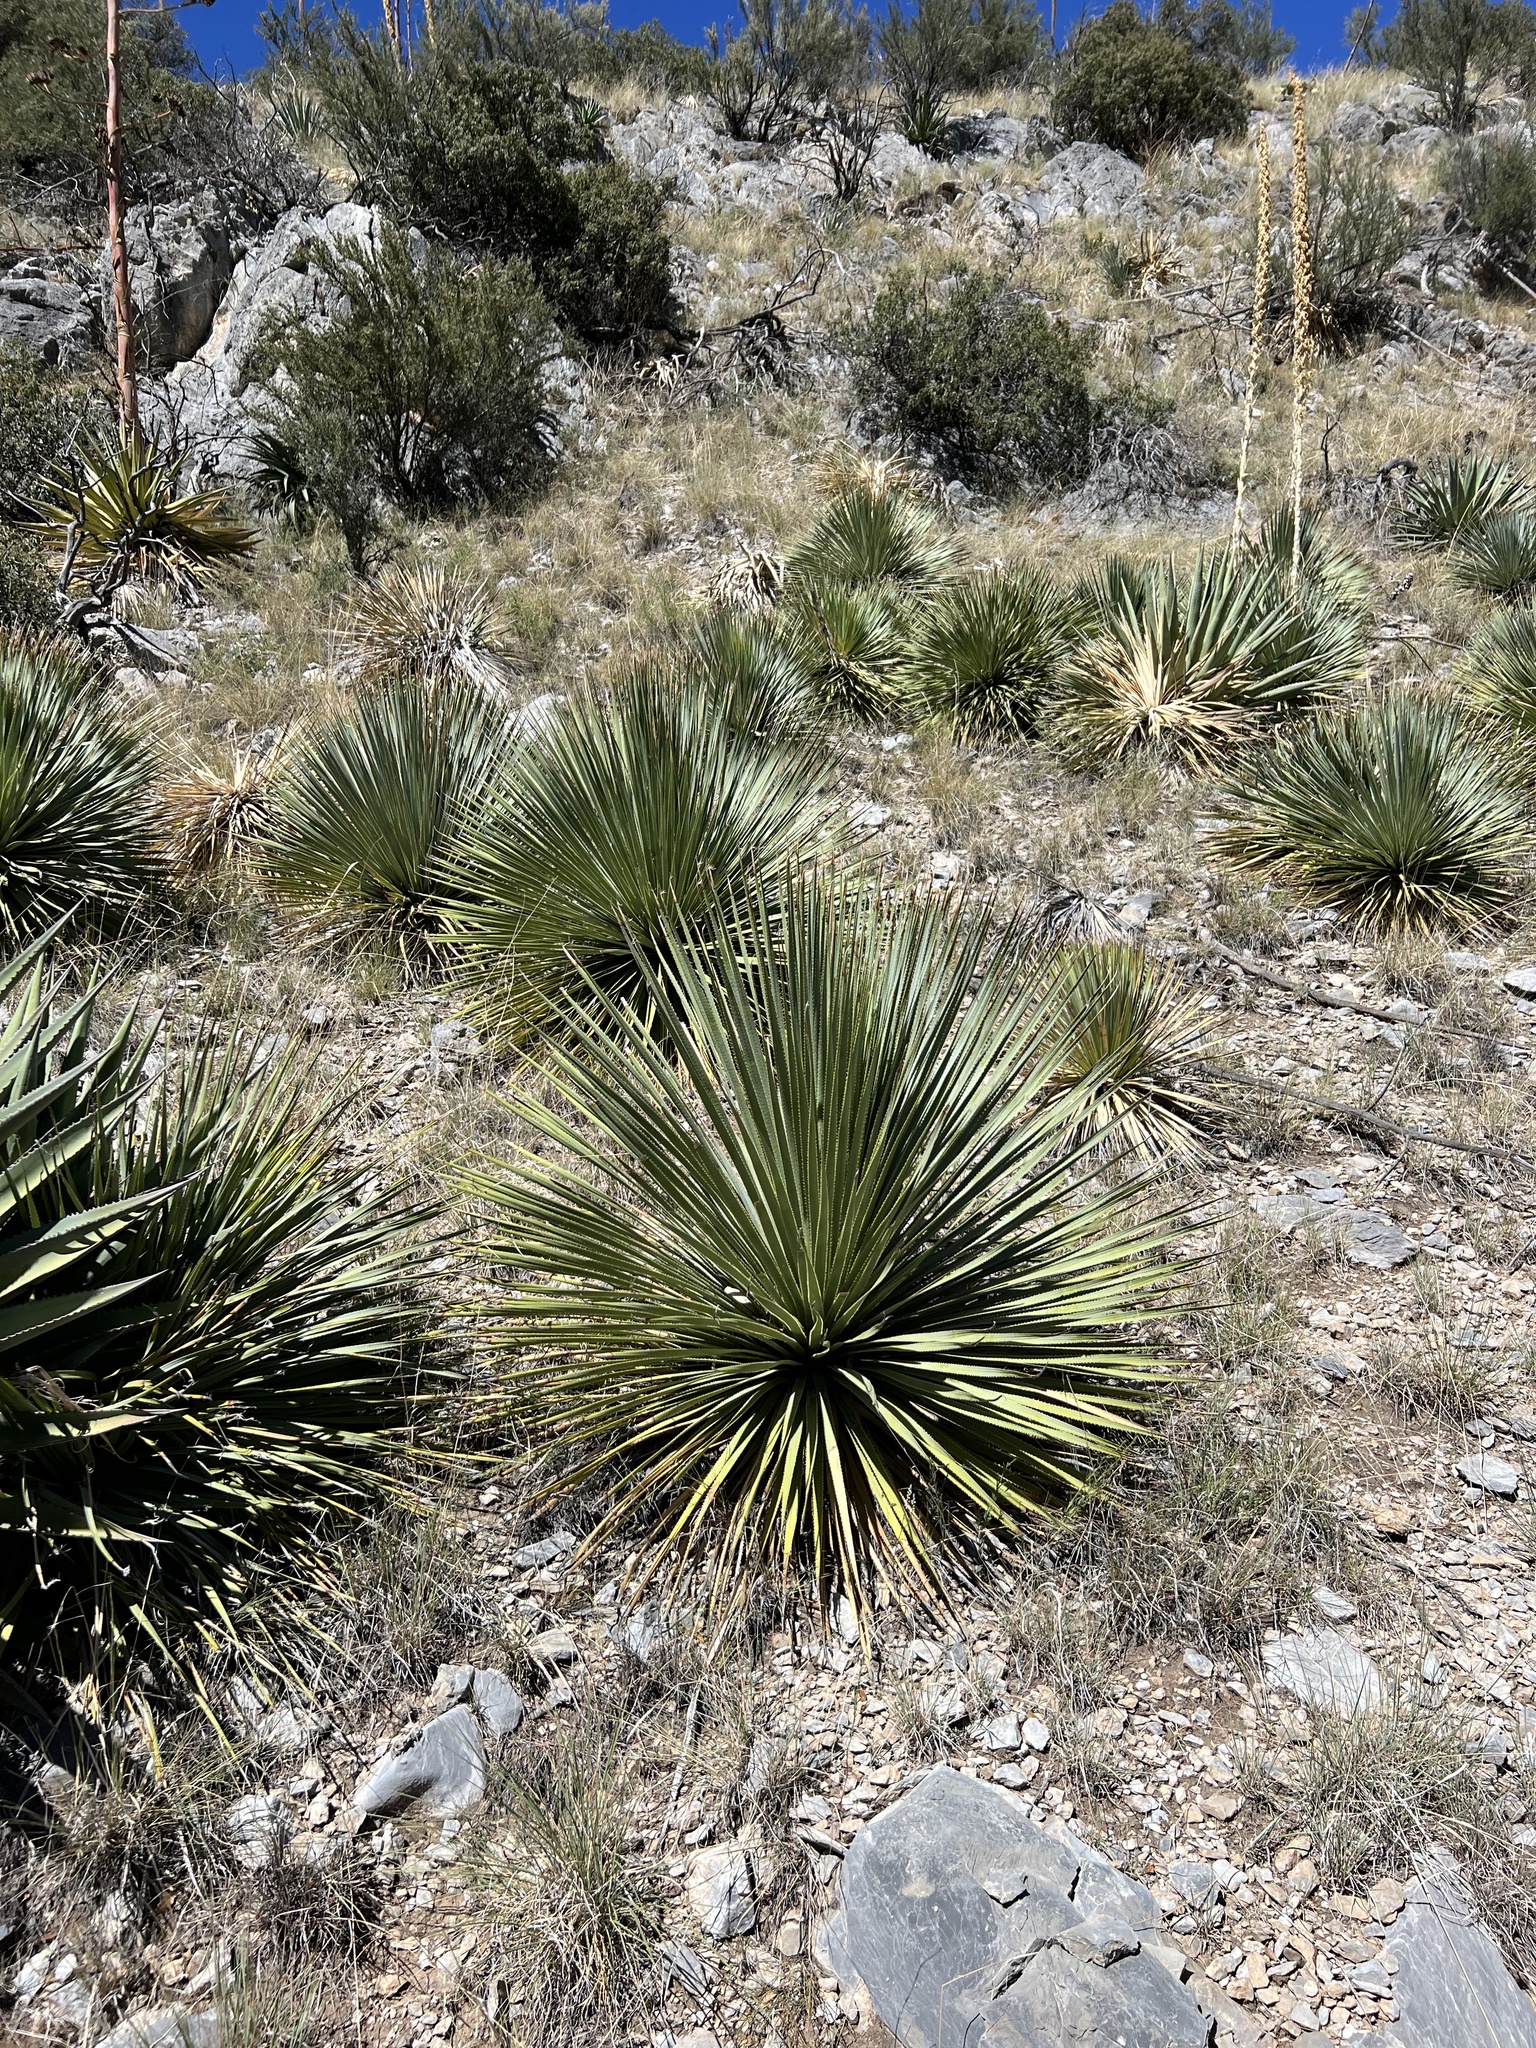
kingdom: Plantae
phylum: Tracheophyta
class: Liliopsida
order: Asparagales
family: Asparagaceae
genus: Dasylirion
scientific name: Dasylirion wheeleri
